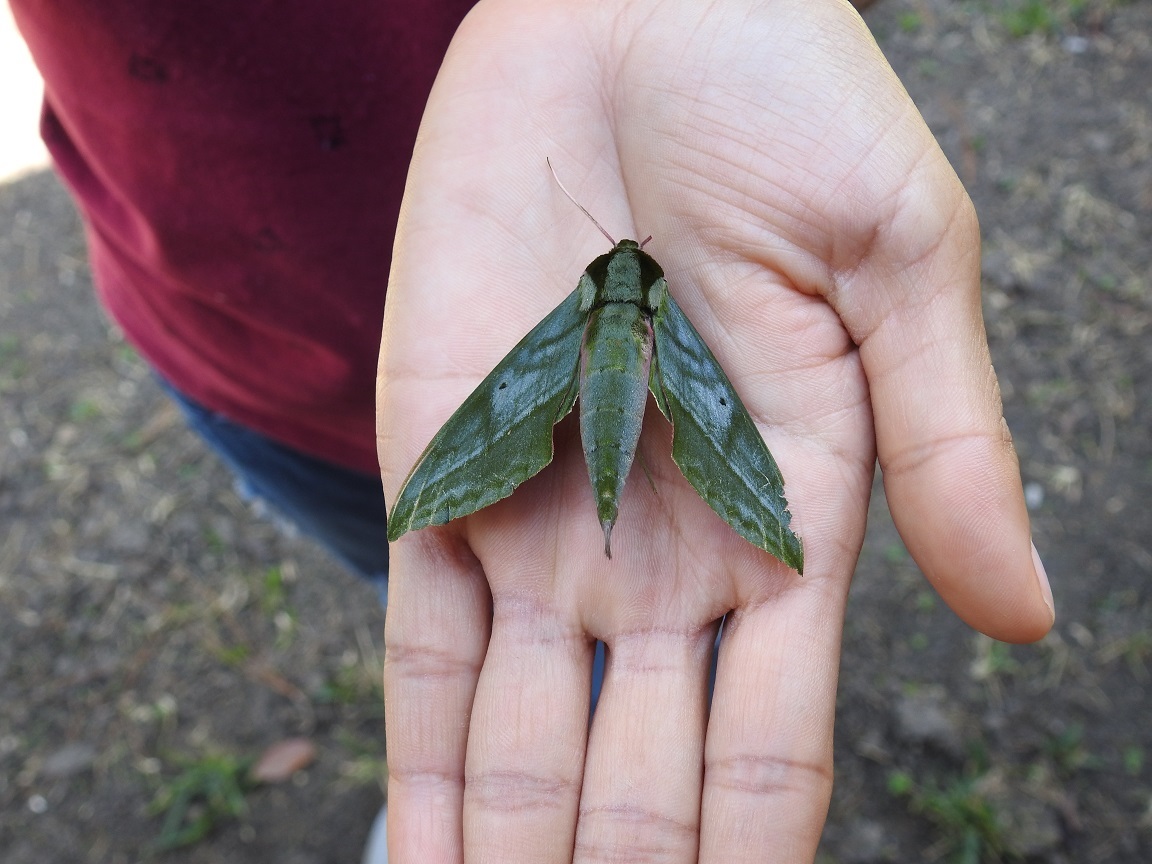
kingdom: Animalia
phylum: Arthropoda
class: Insecta
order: Lepidoptera
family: Sphingidae
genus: Xylophanes
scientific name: Xylophanes belti
